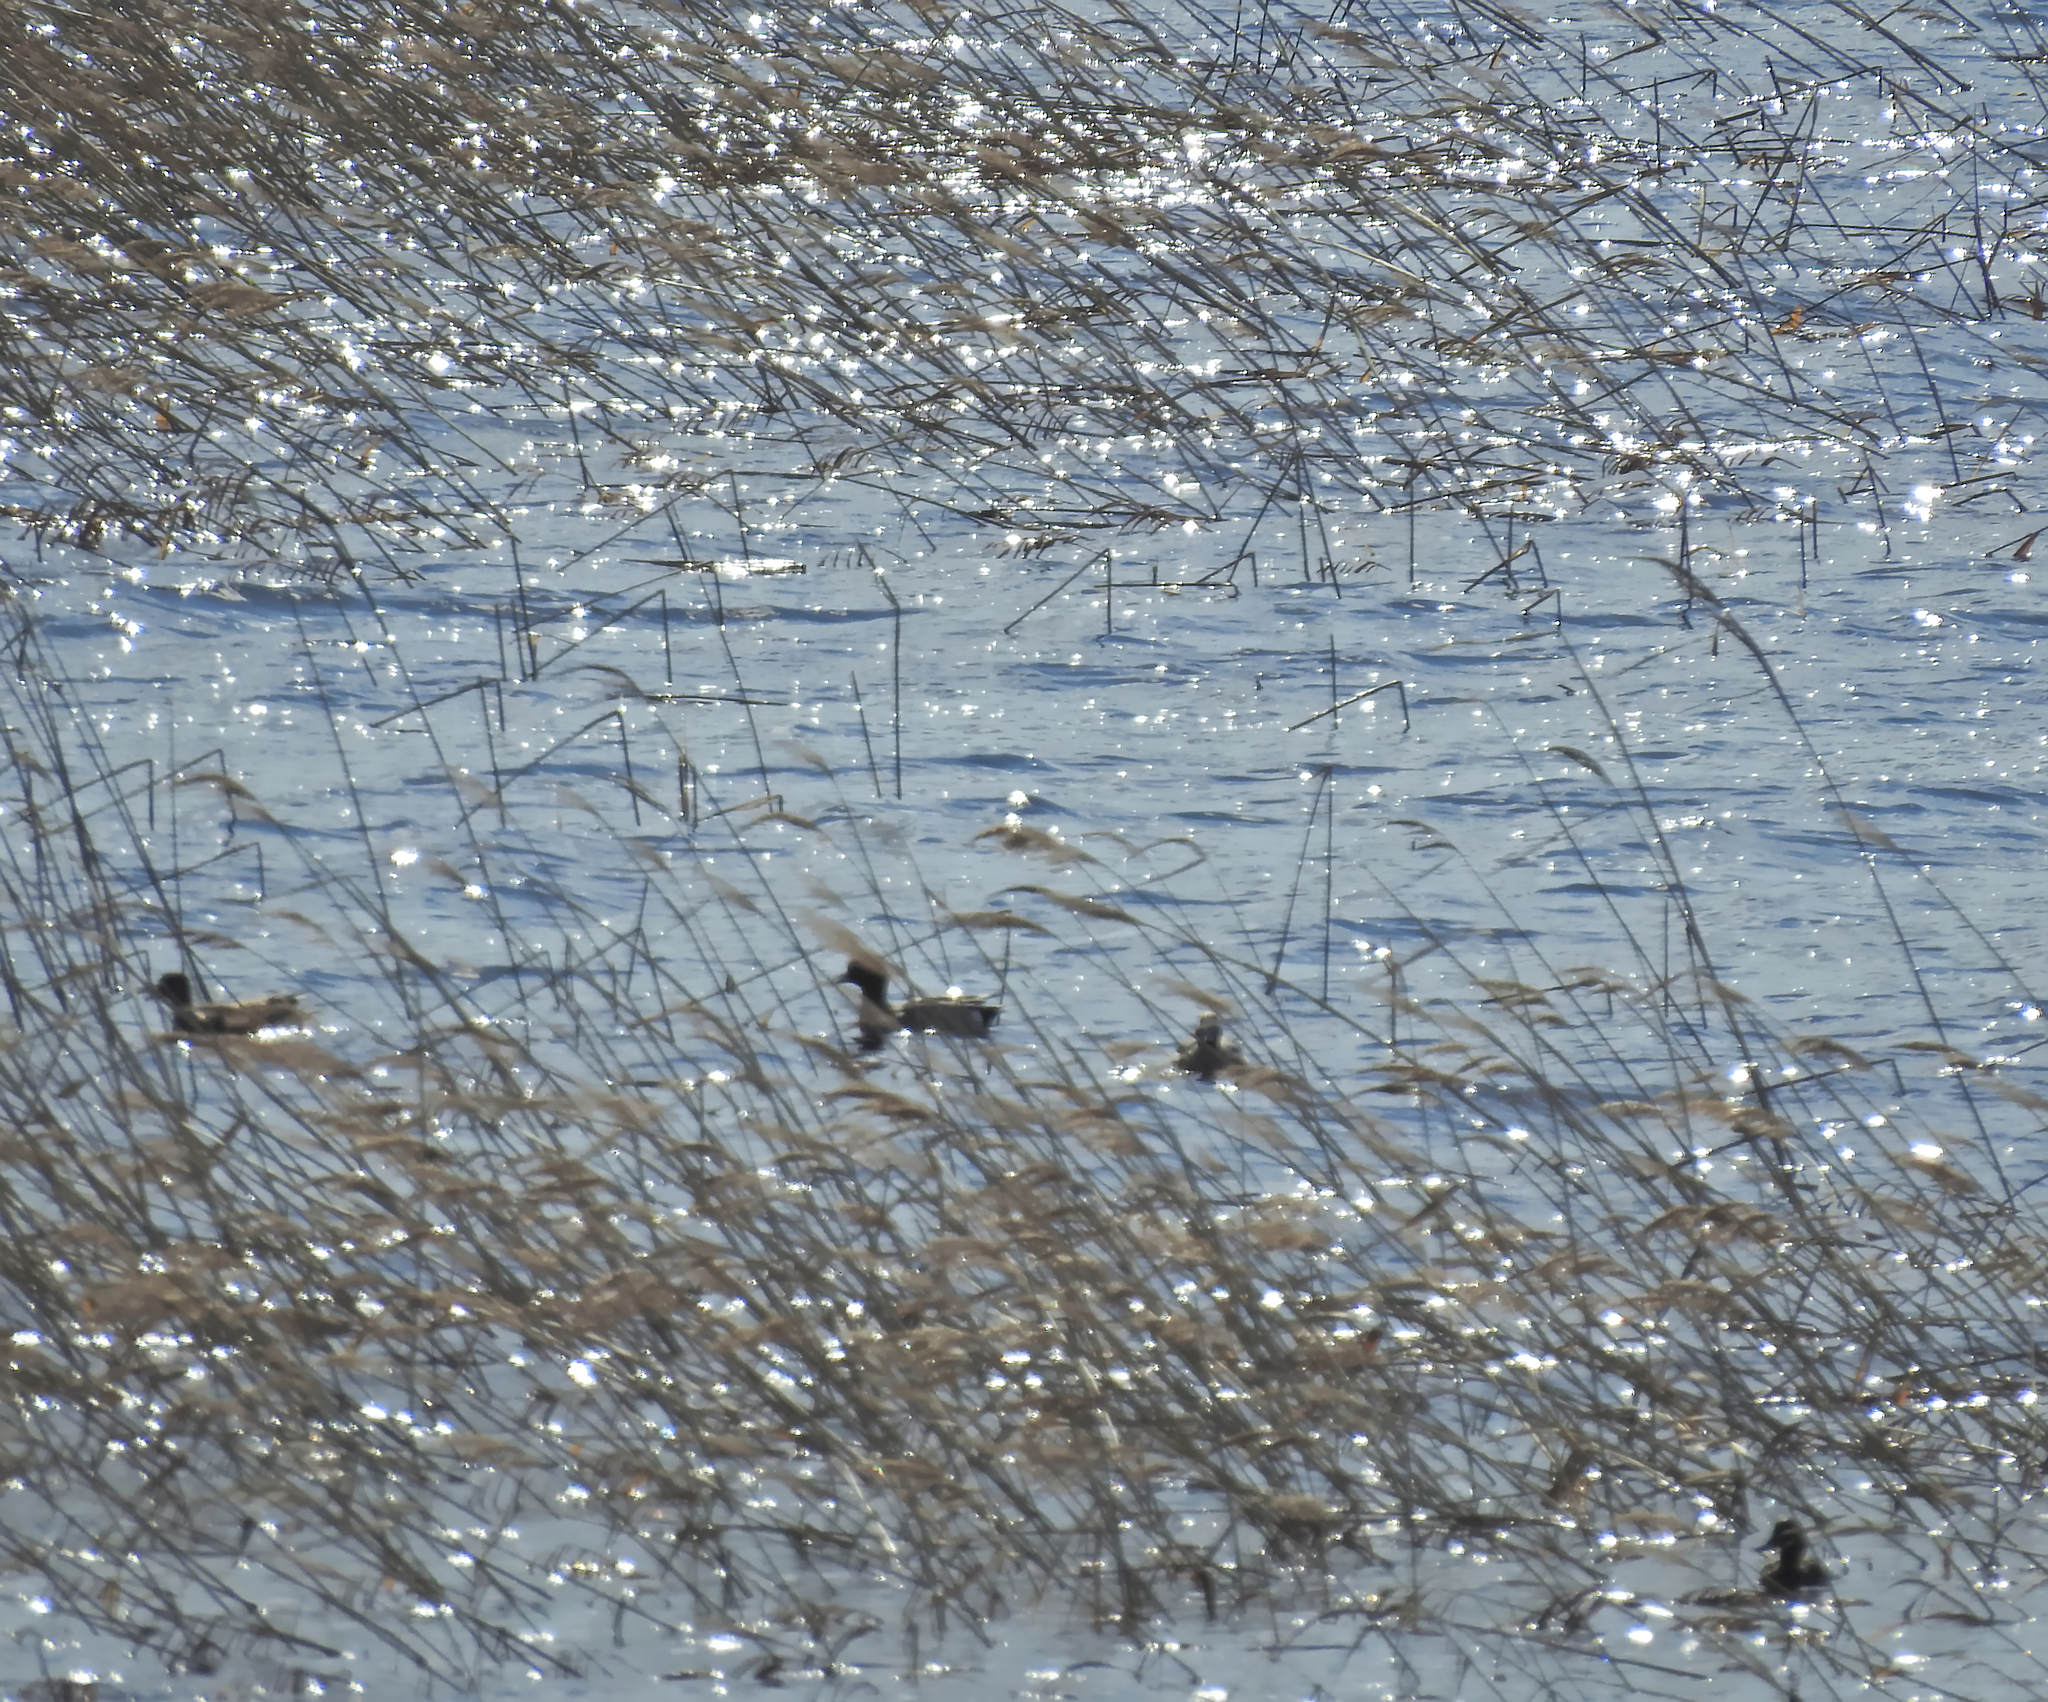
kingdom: Animalia
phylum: Chordata
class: Aves
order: Anseriformes
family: Anatidae
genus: Mareca
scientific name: Mareca penelope
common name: Eurasian wigeon
